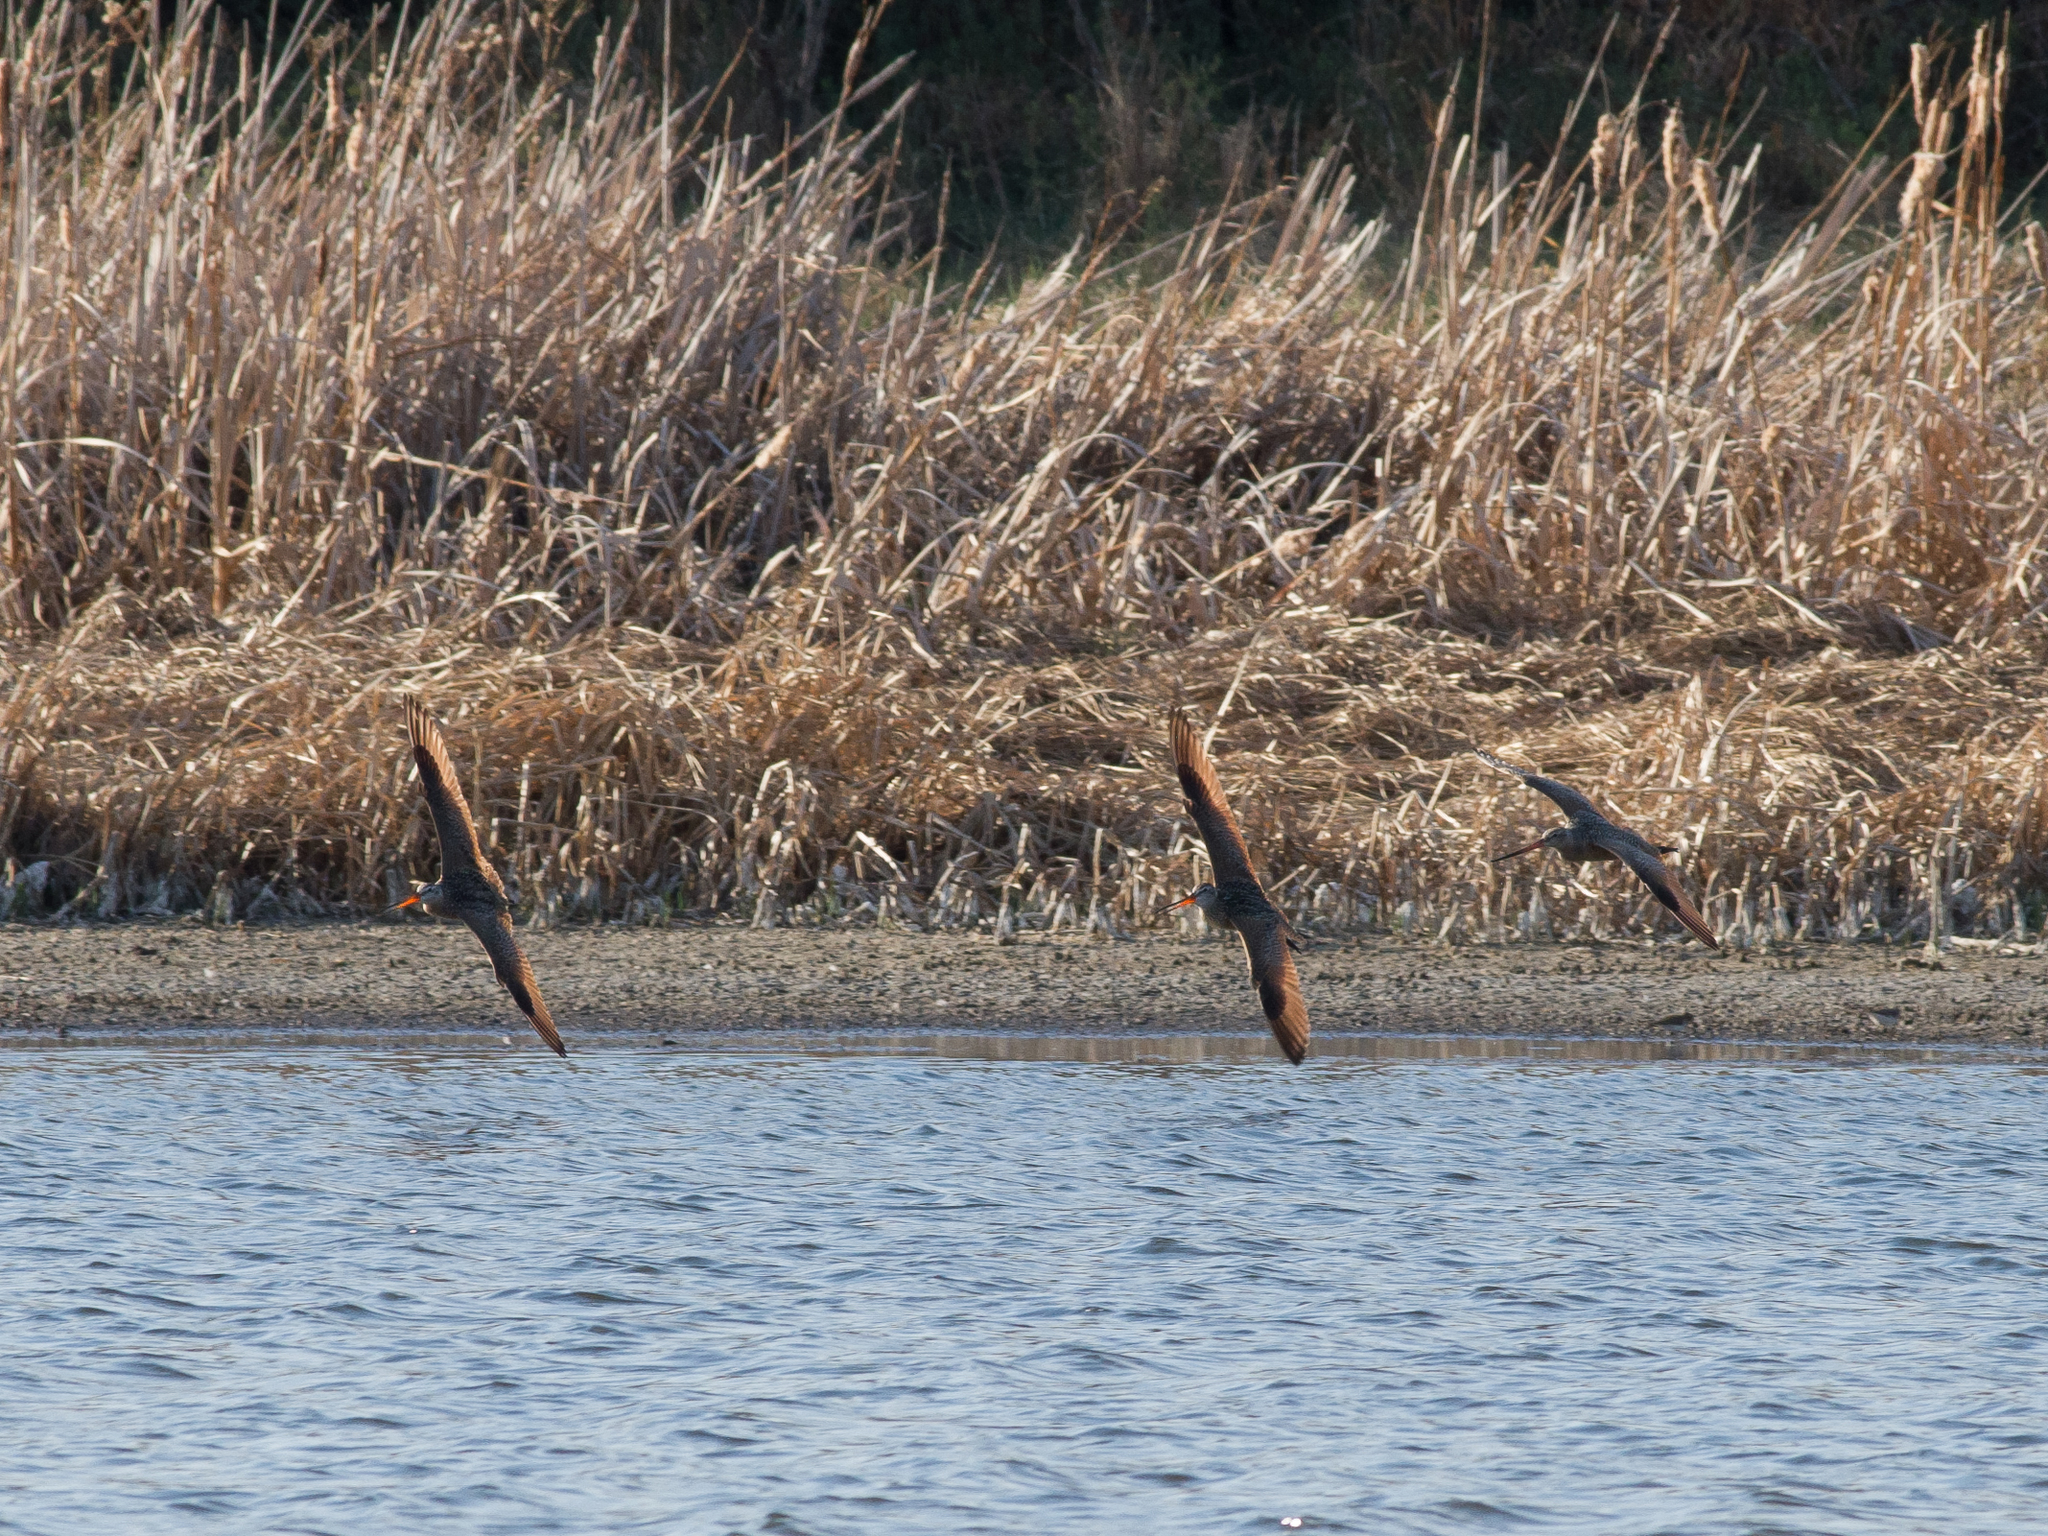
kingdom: Animalia
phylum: Chordata
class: Aves
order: Charadriiformes
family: Scolopacidae
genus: Limosa
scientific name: Limosa fedoa
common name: Marbled godwit
